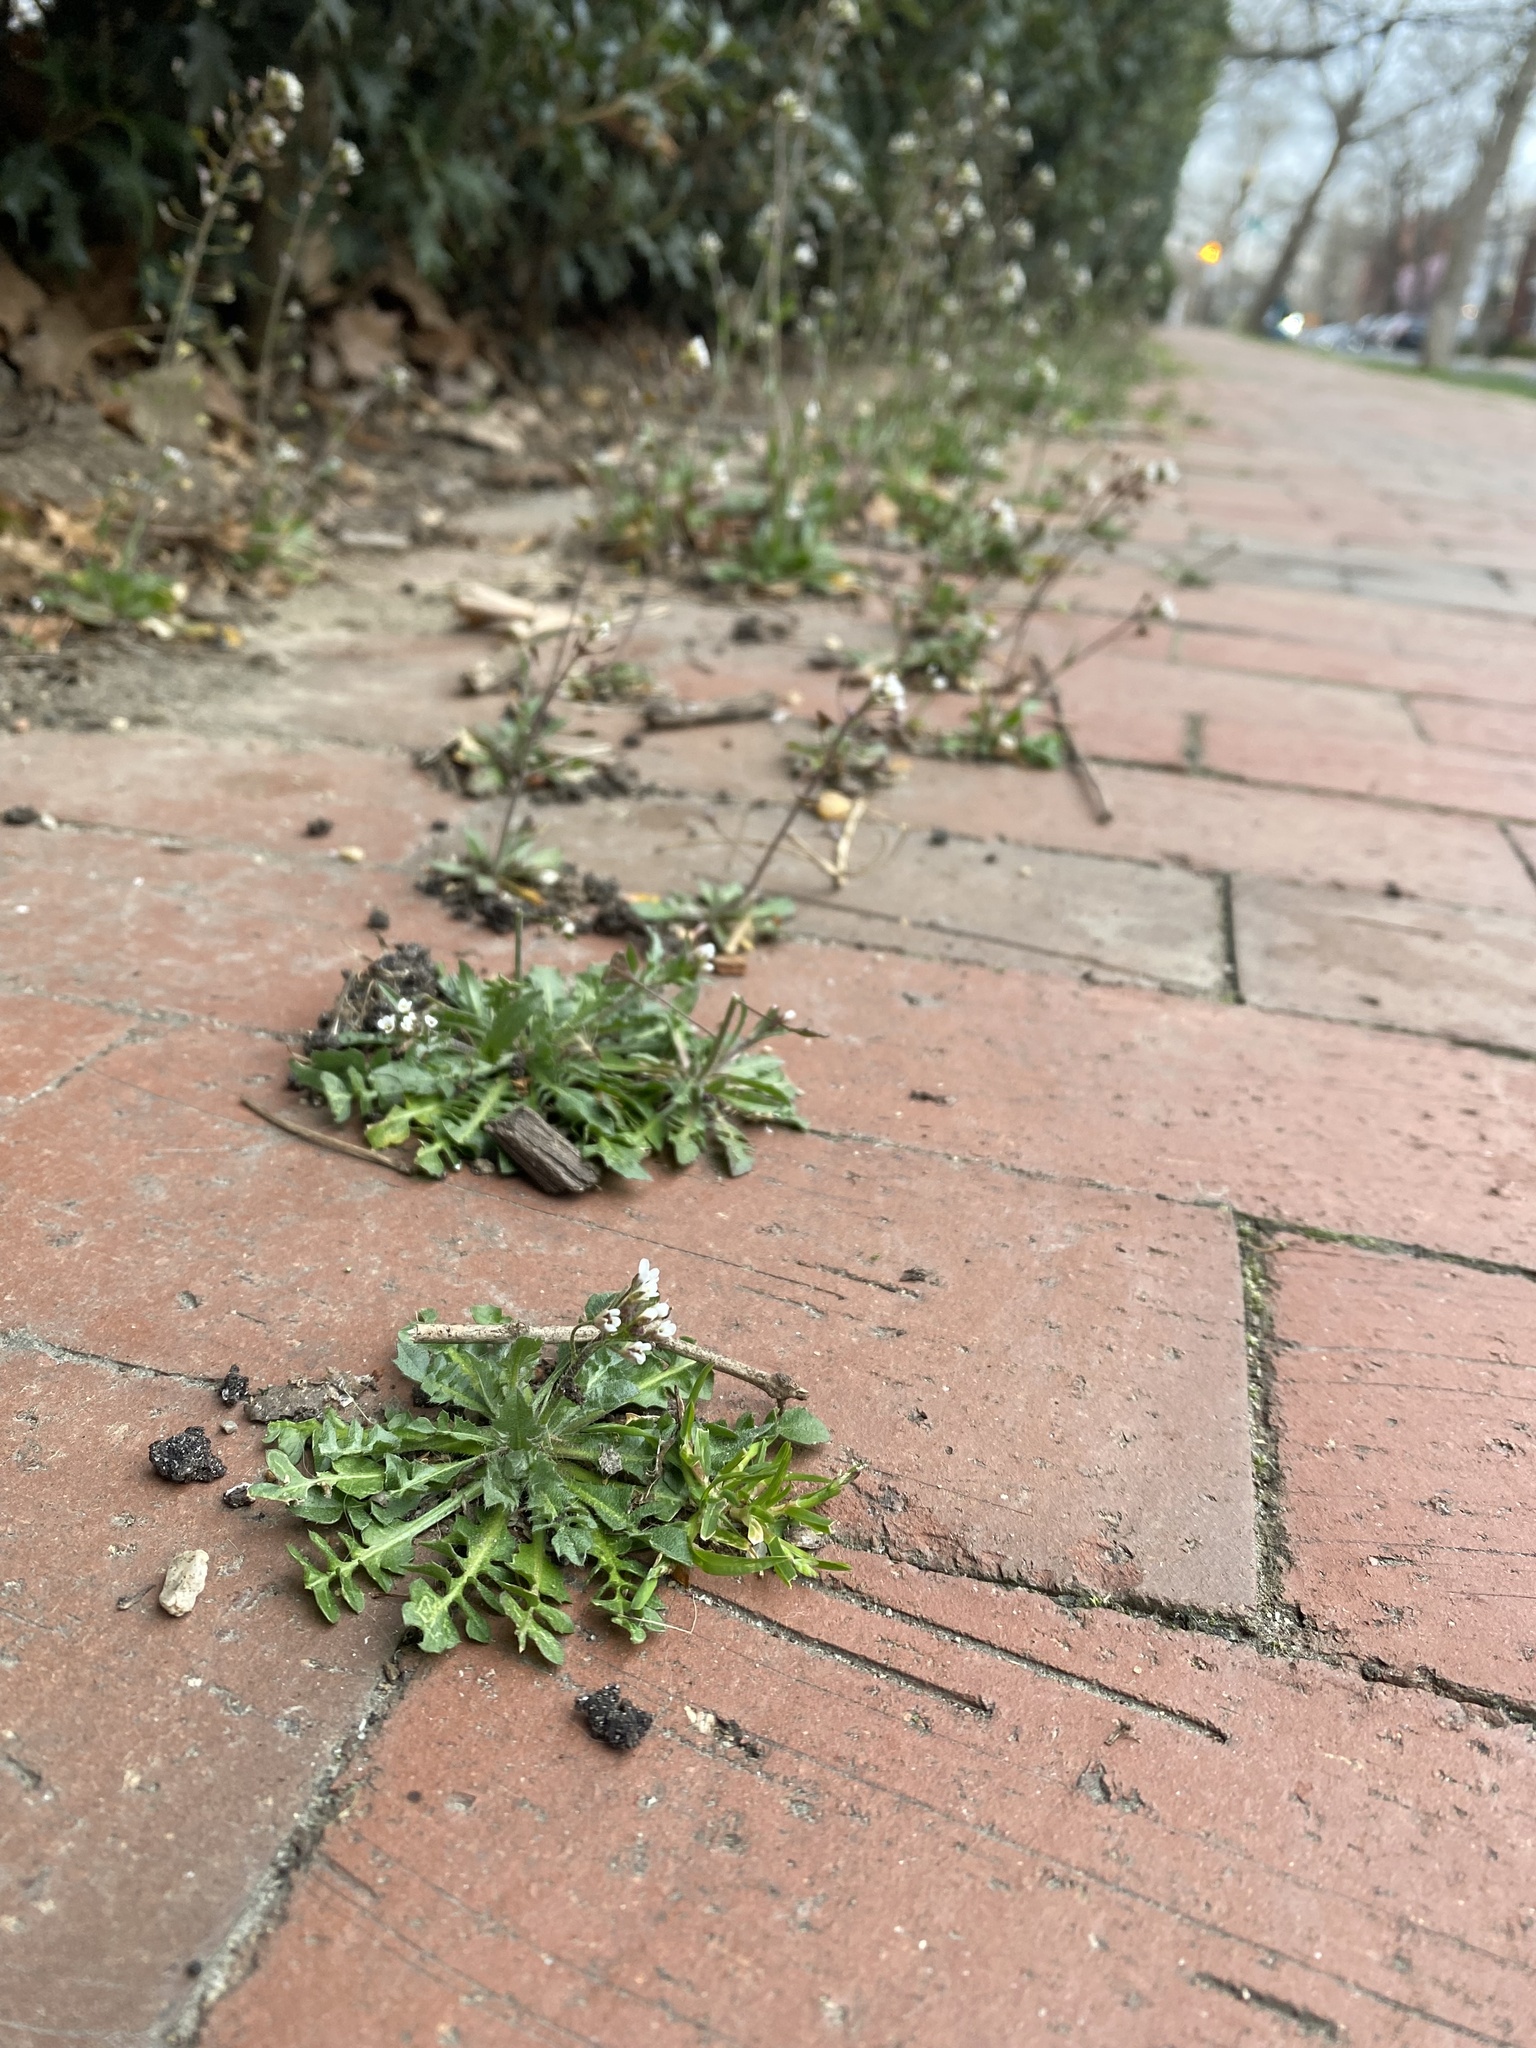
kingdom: Plantae
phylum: Tracheophyta
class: Magnoliopsida
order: Brassicales
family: Brassicaceae
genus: Capsella
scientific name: Capsella bursa-pastoris
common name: Shepherd's purse
